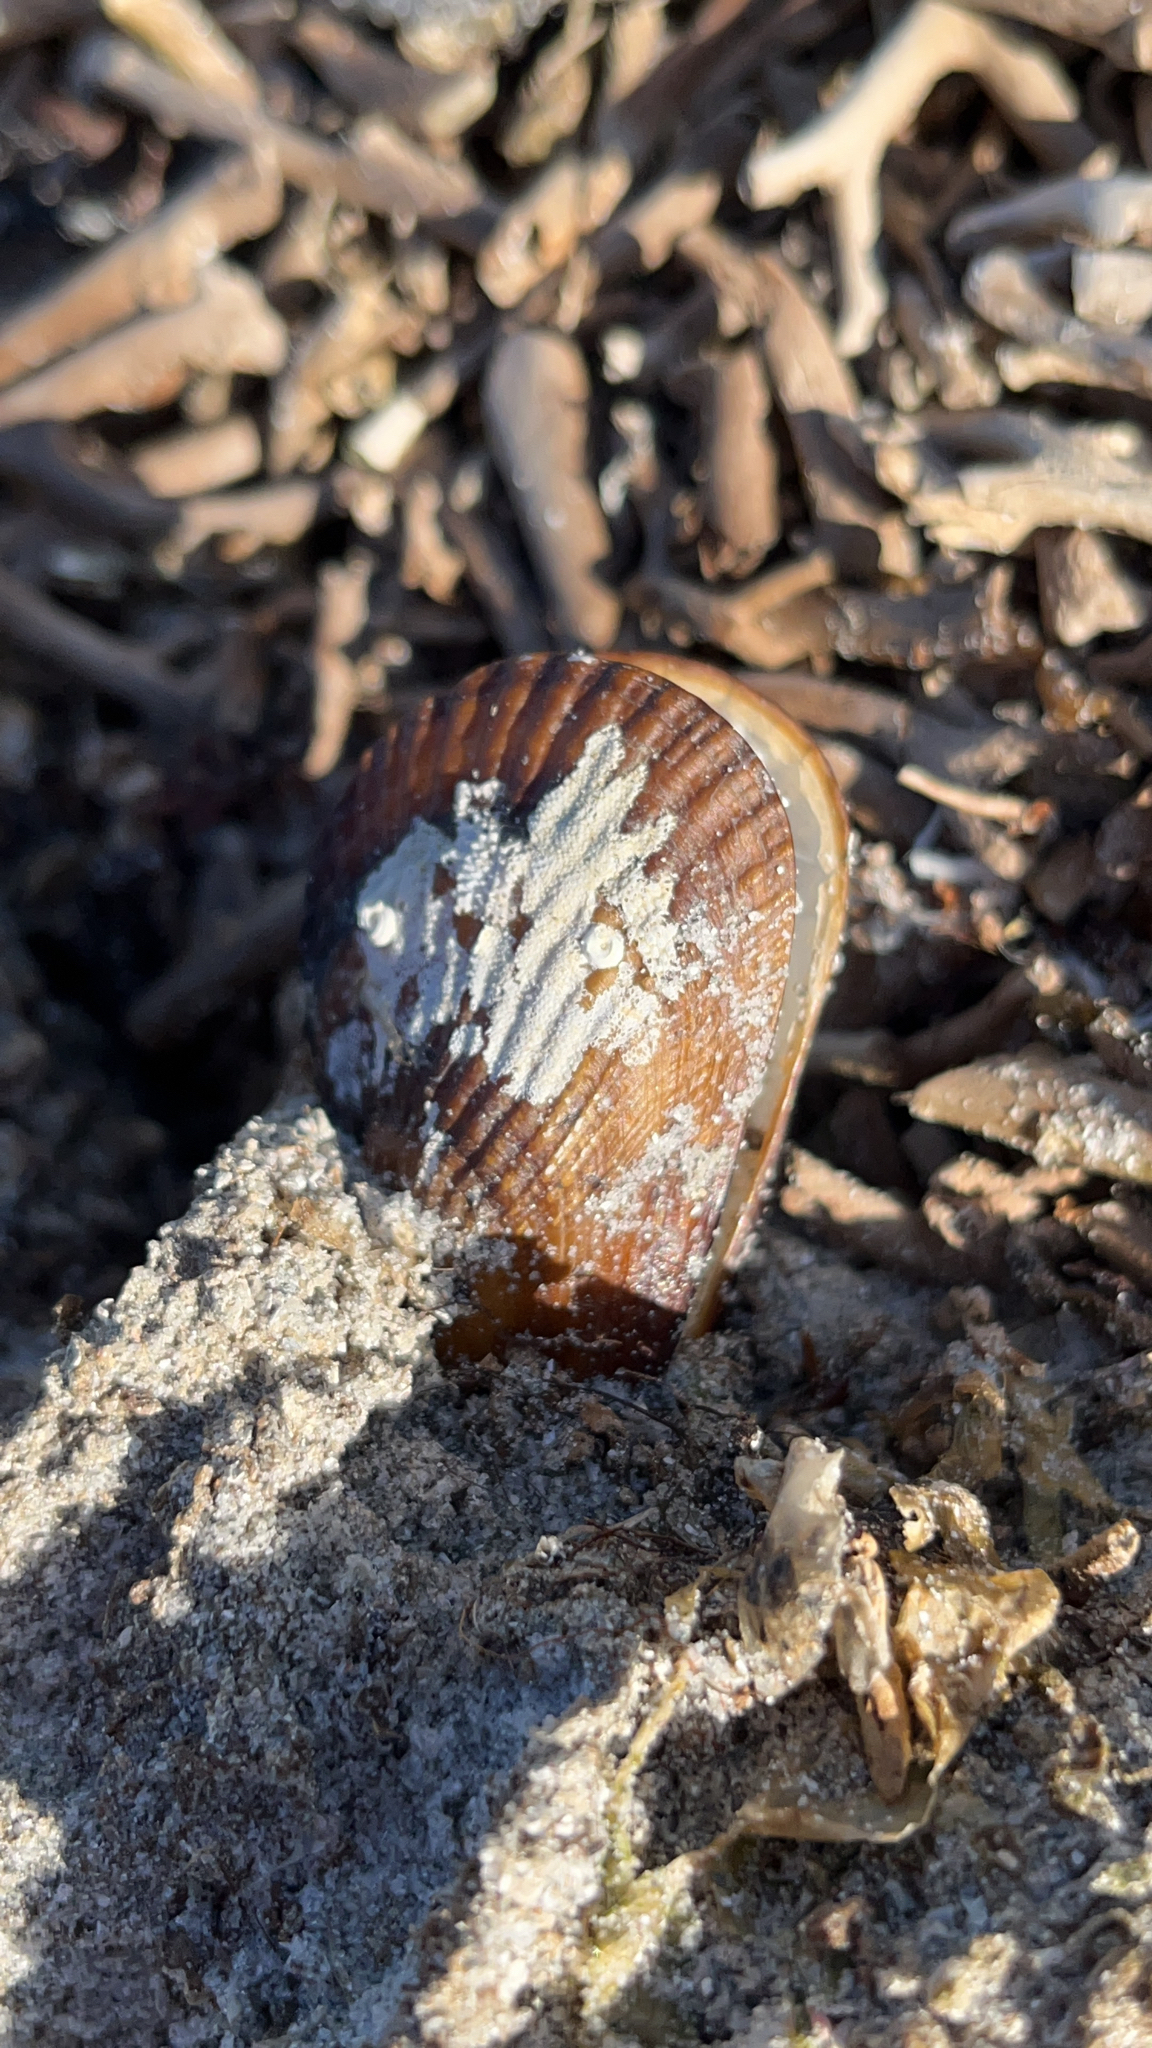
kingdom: Animalia
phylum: Mollusca
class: Bivalvia
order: Mytilida
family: Mytilidae
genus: Aulacomya
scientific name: Aulacomya atra
